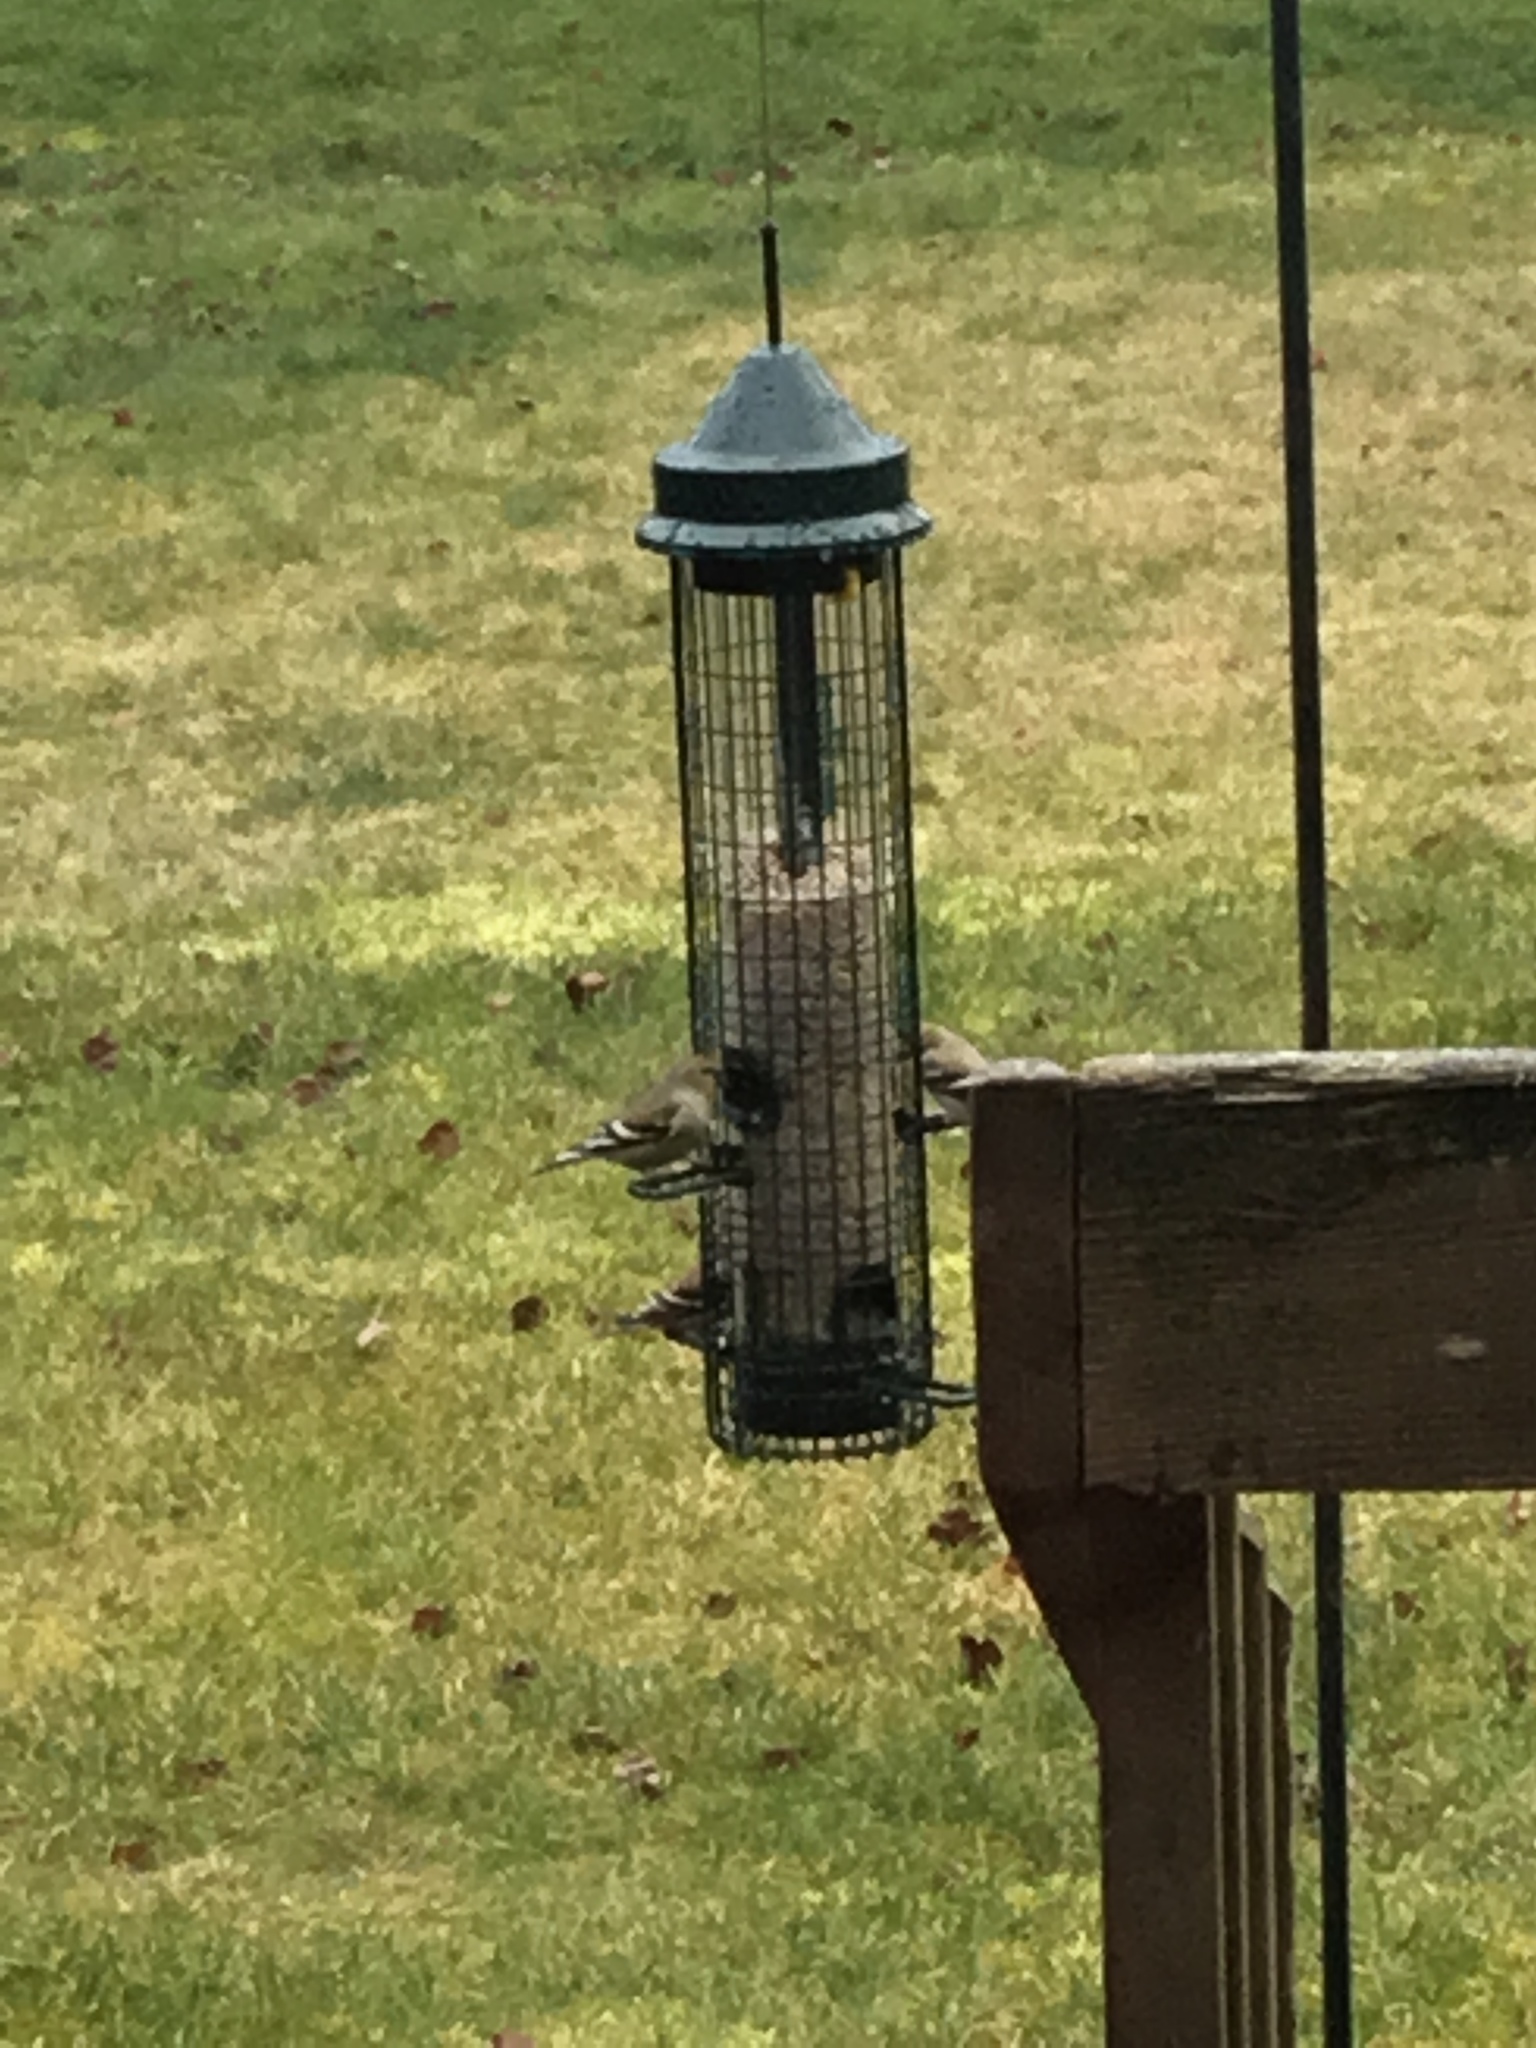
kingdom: Animalia
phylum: Chordata
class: Aves
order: Passeriformes
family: Fringillidae
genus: Spinus
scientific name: Spinus tristis
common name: American goldfinch
